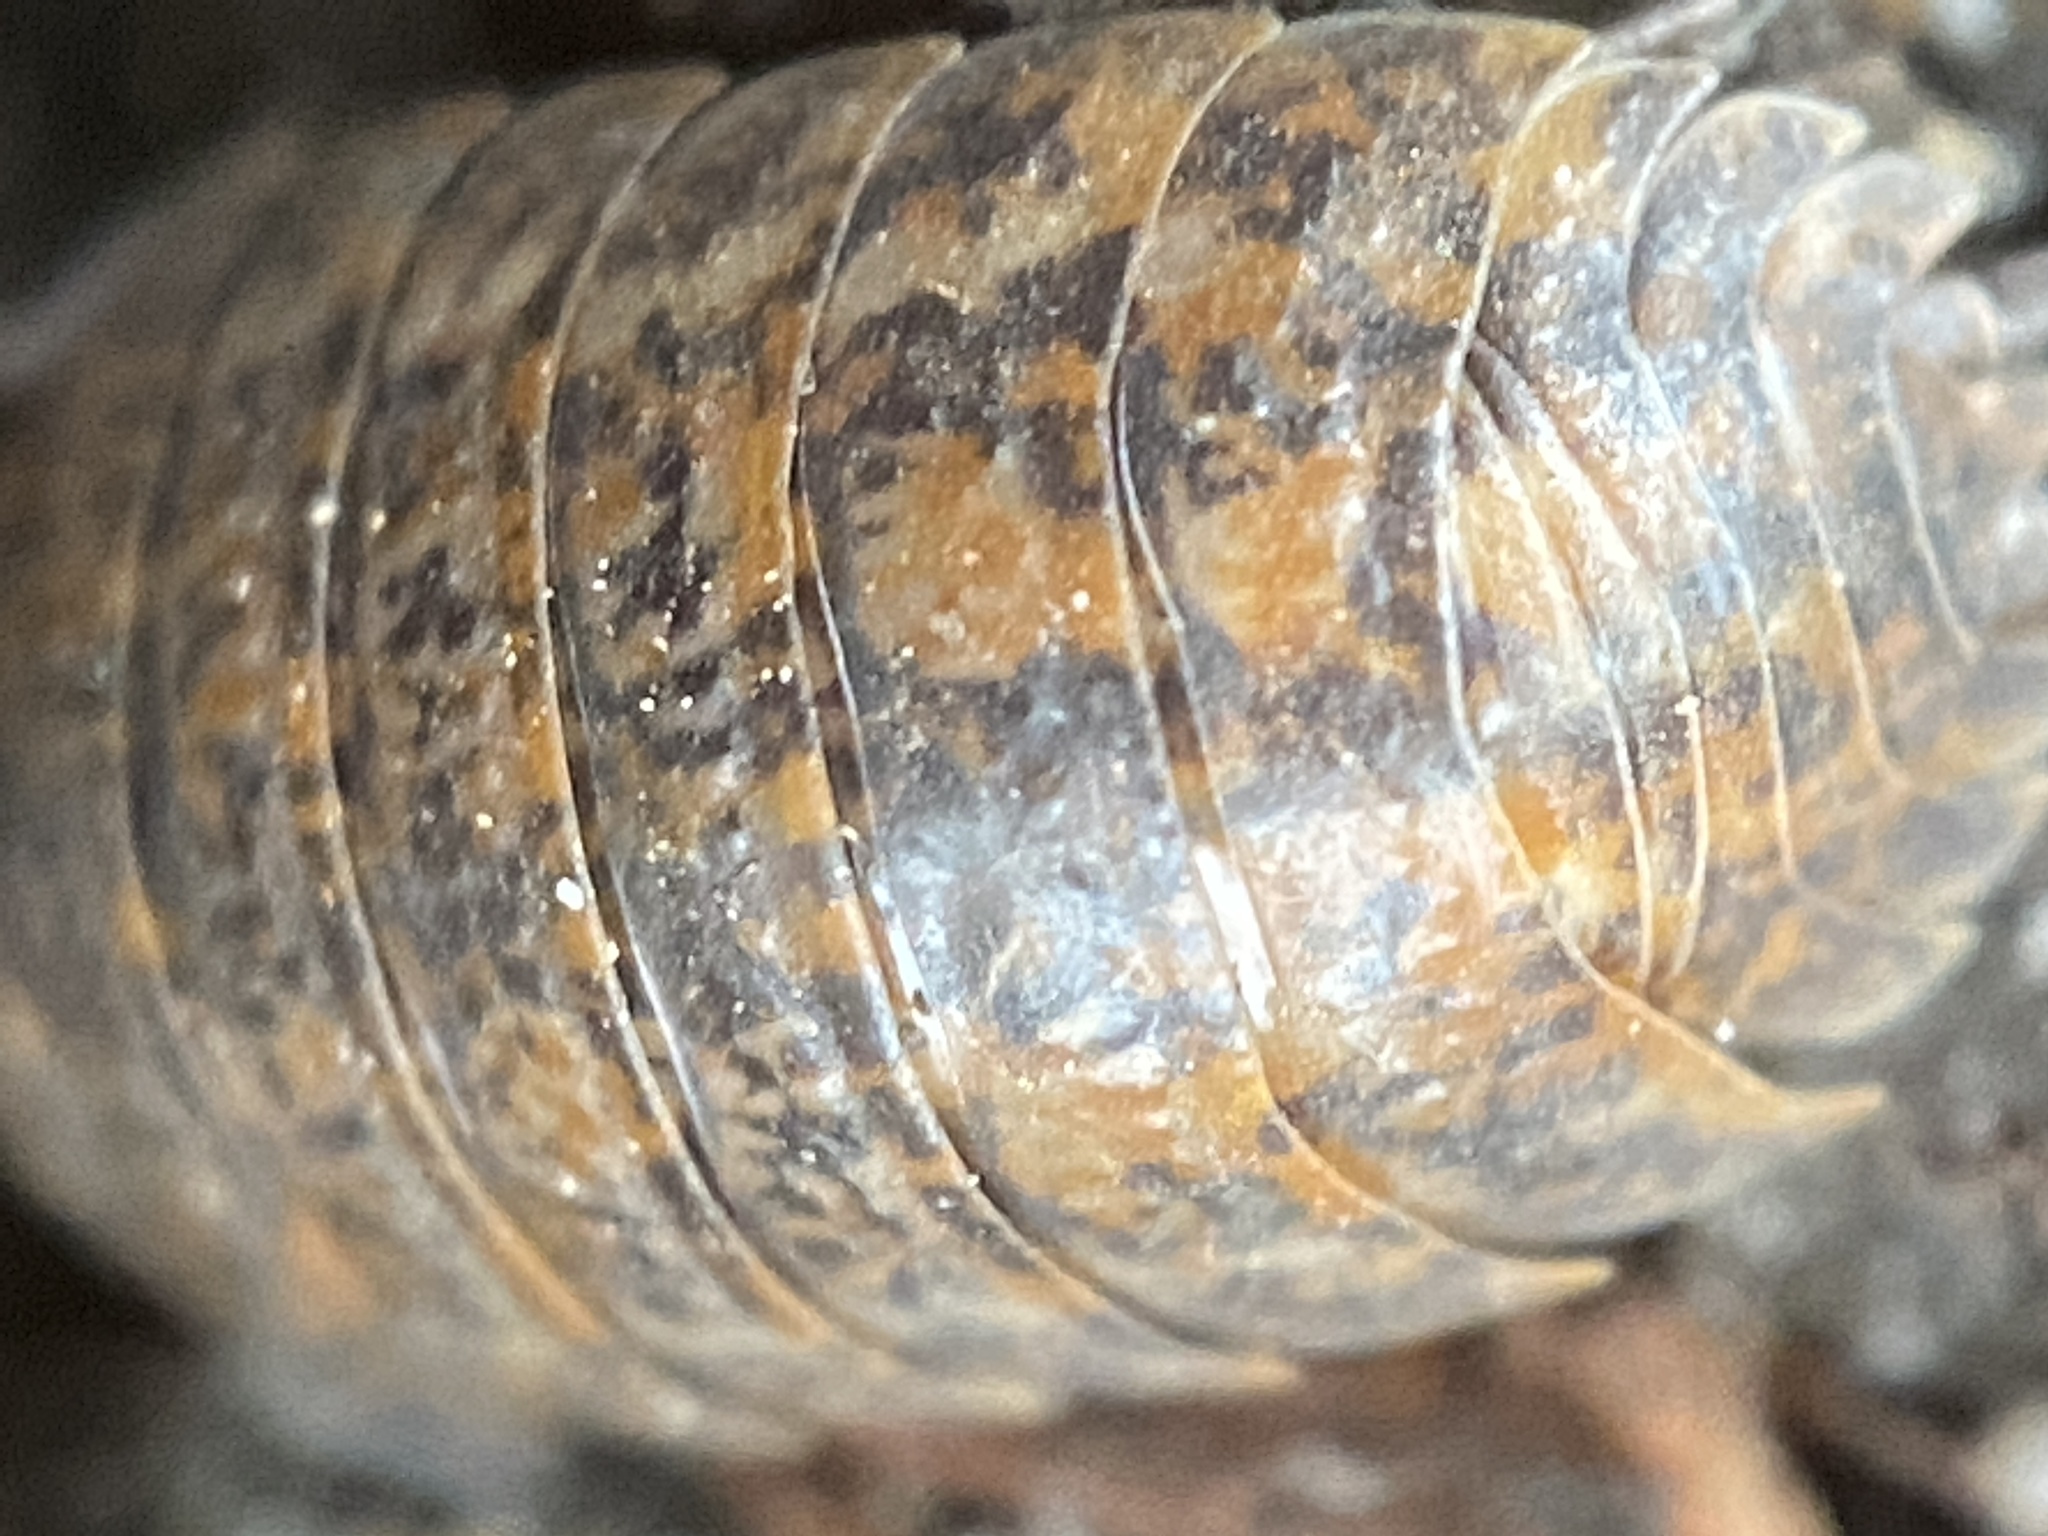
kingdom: Animalia
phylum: Arthropoda
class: Malacostraca
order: Isopoda
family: Trachelipodidae
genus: Trachelipus
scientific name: Trachelipus rathkii
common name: Isopod
